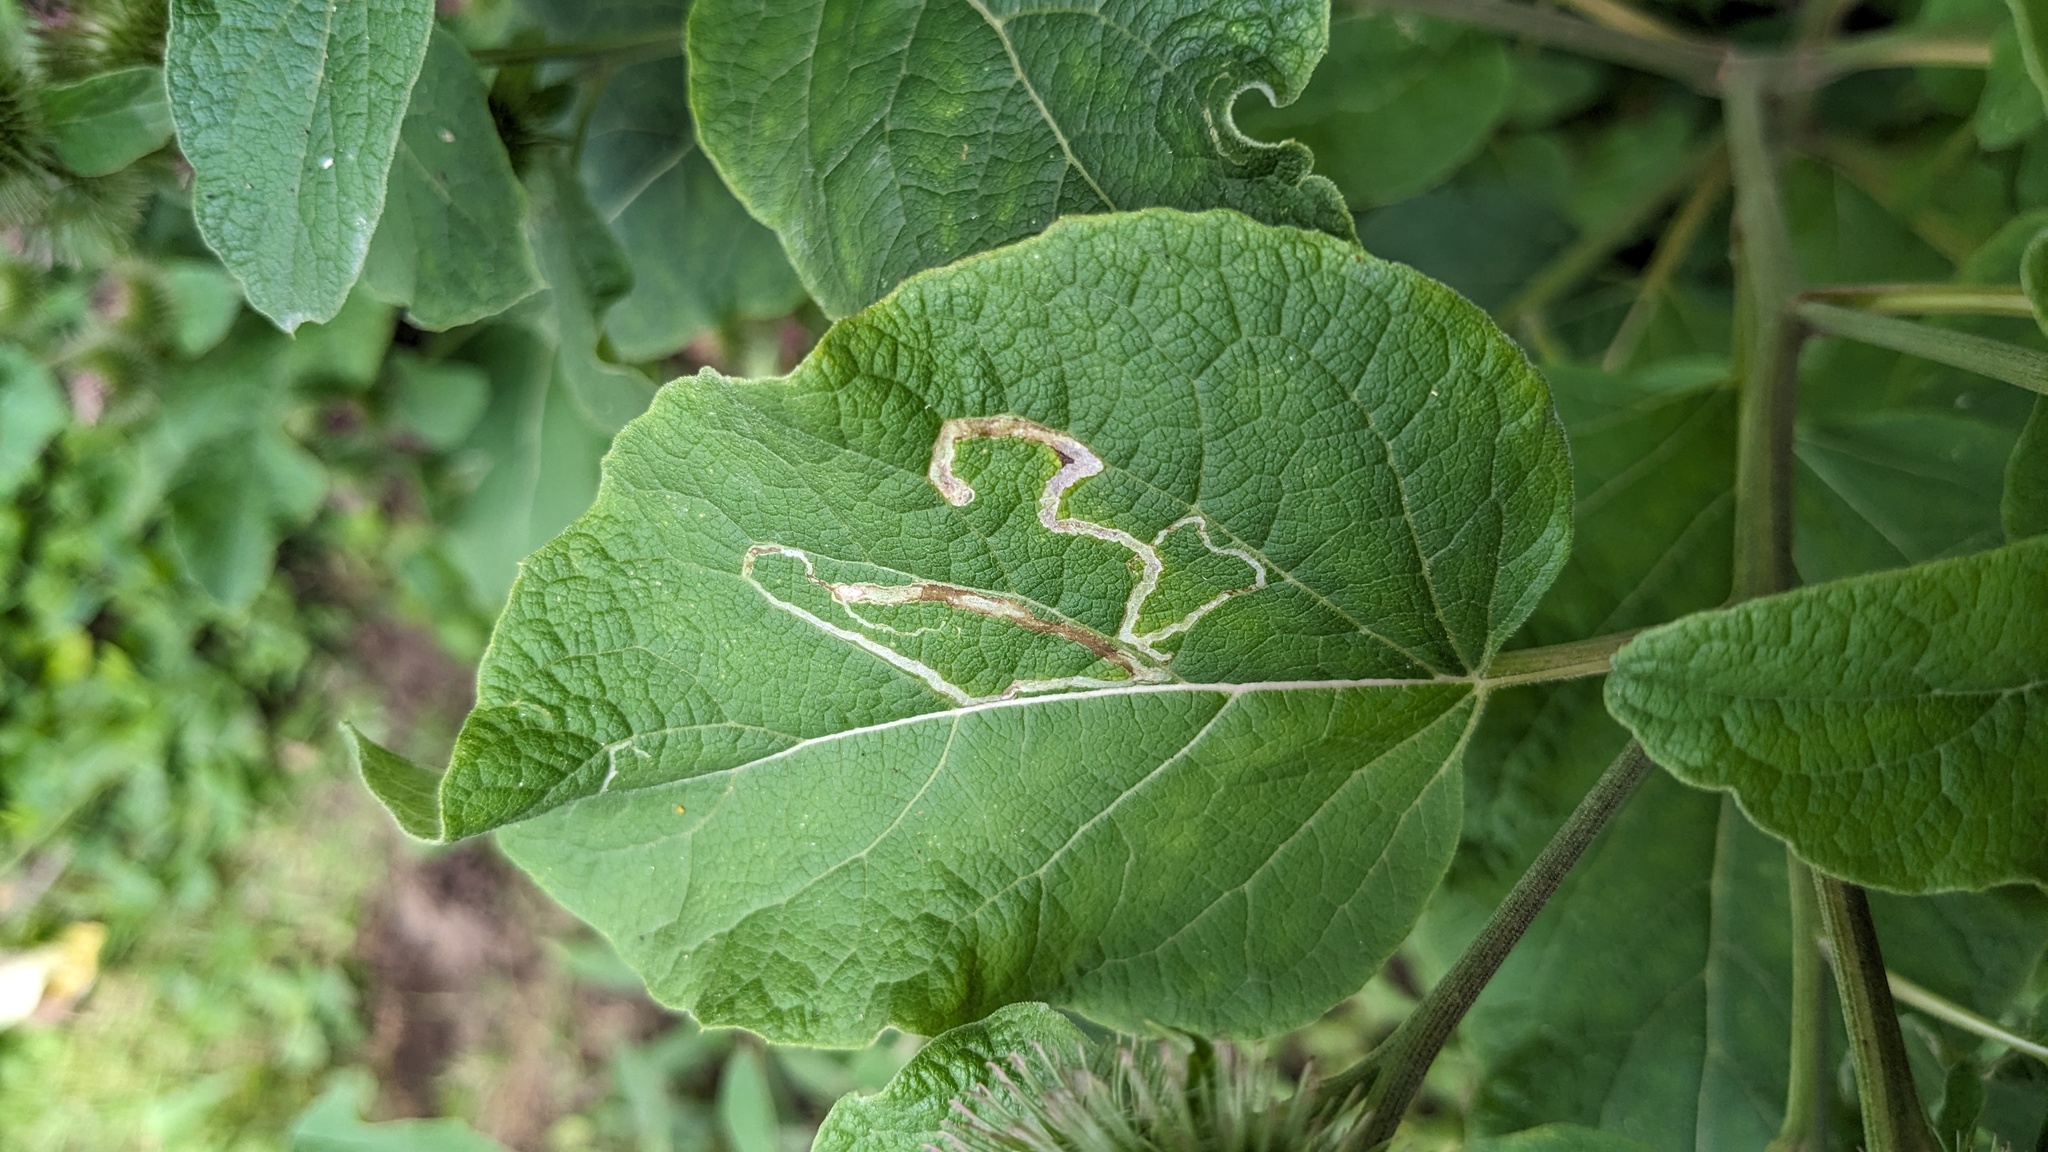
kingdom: Animalia
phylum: Arthropoda
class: Insecta
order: Diptera
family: Agromyzidae
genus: Liriomyza
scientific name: Liriomyza arctii
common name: Burdock leafminer
